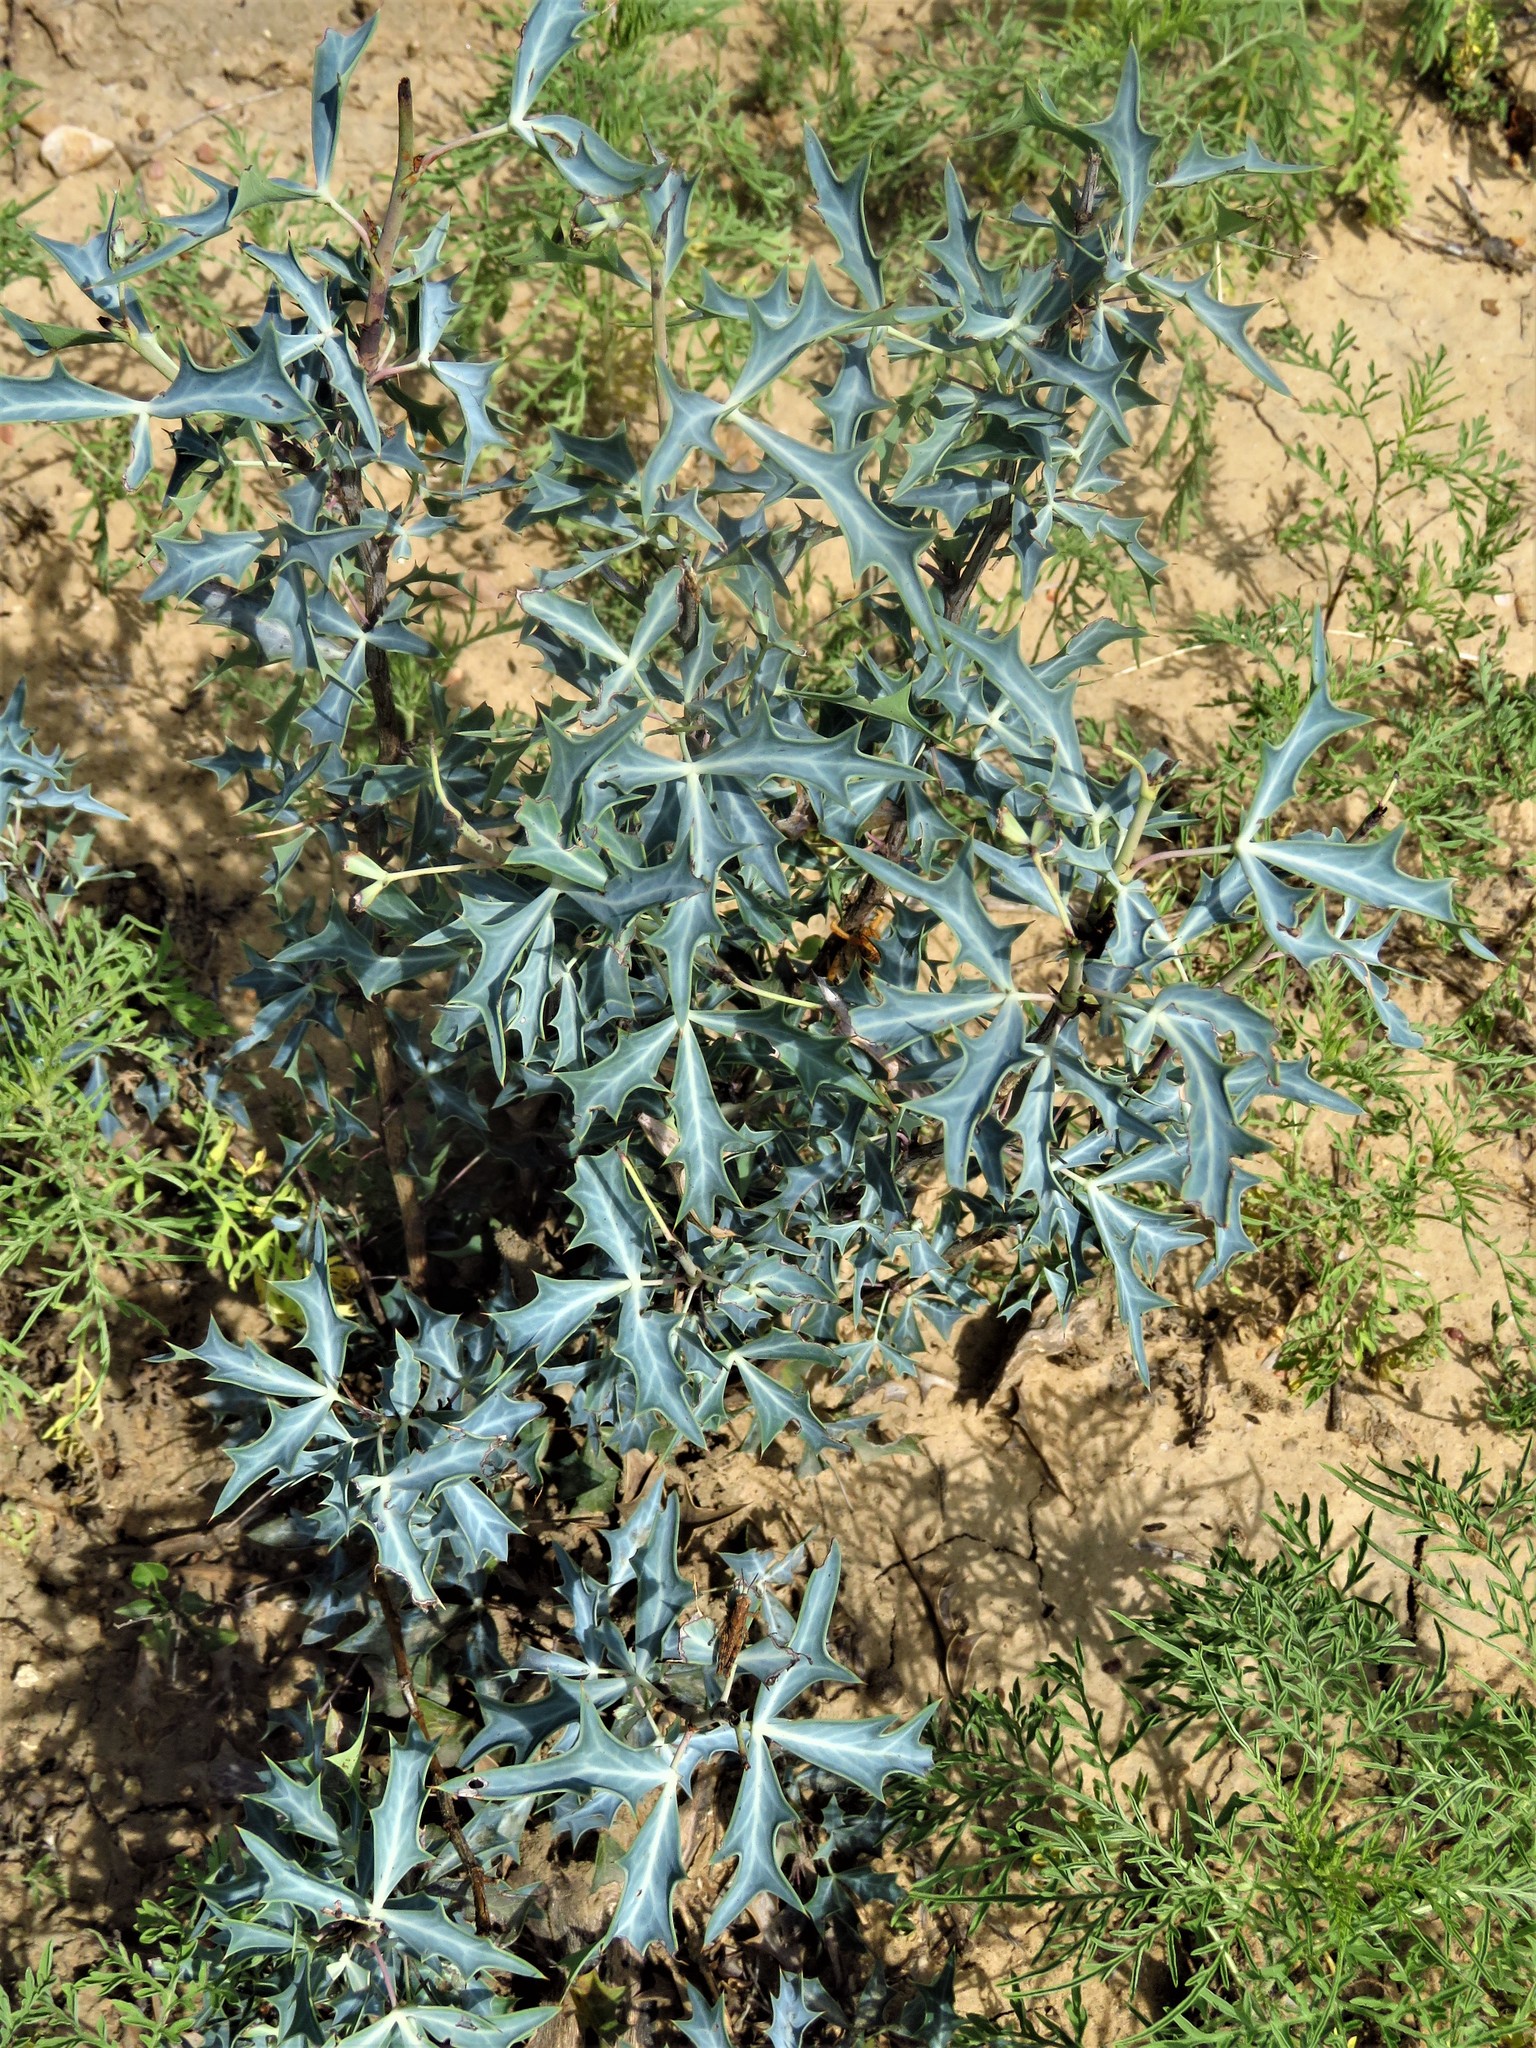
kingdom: Plantae
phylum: Tracheophyta
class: Magnoliopsida
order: Ranunculales
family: Berberidaceae
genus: Alloberberis
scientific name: Alloberberis trifoliolata
